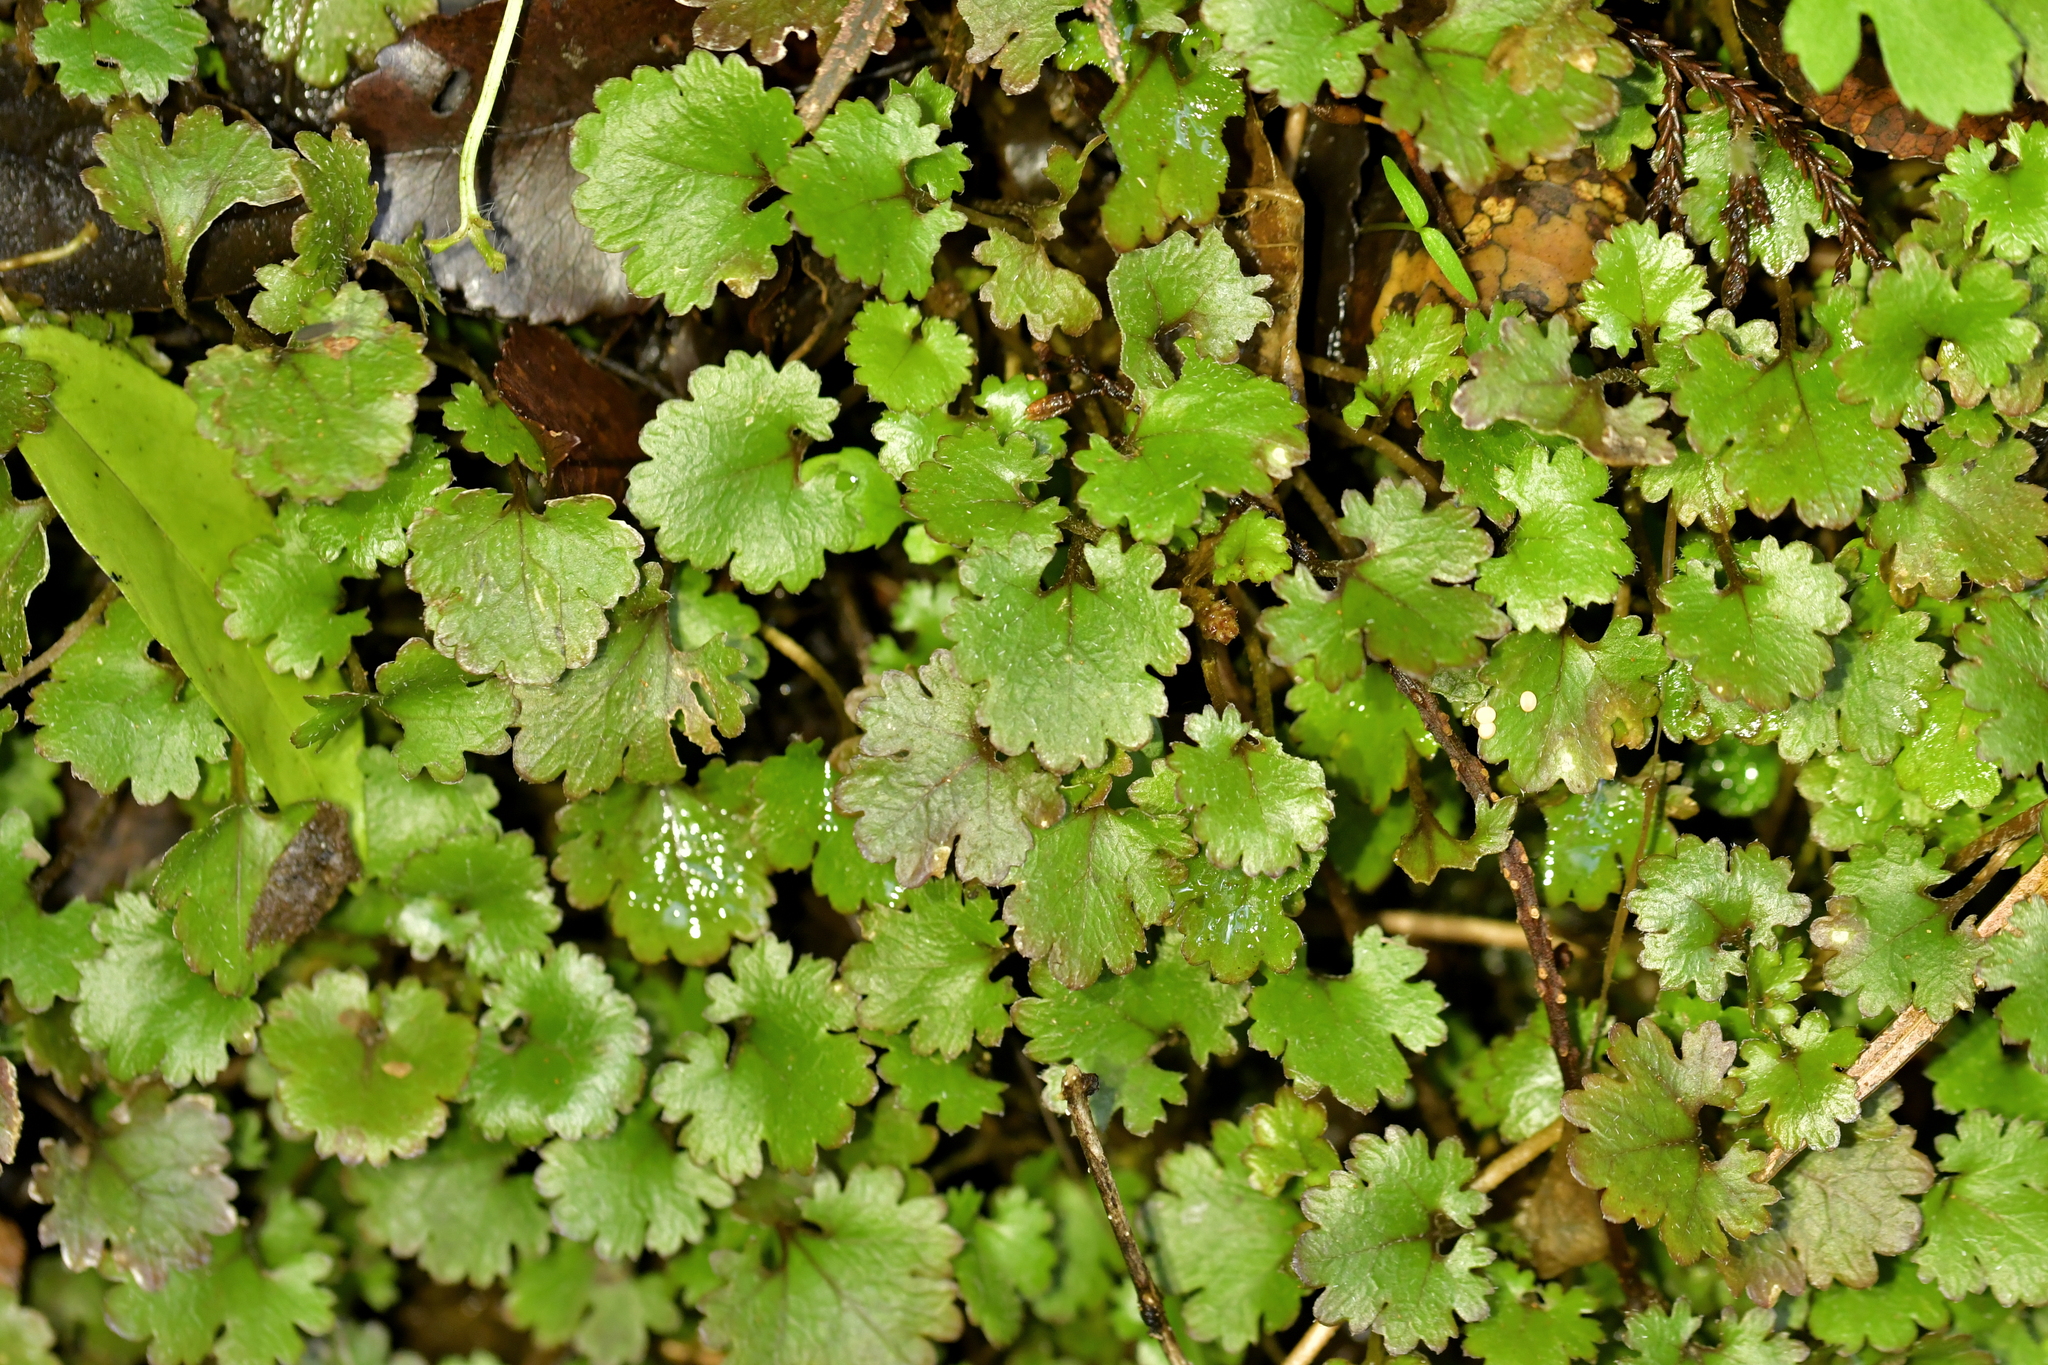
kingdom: Plantae
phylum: Tracheophyta
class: Magnoliopsida
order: Gunnerales
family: Gunneraceae
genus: Gunnera
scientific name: Gunnera monoica
